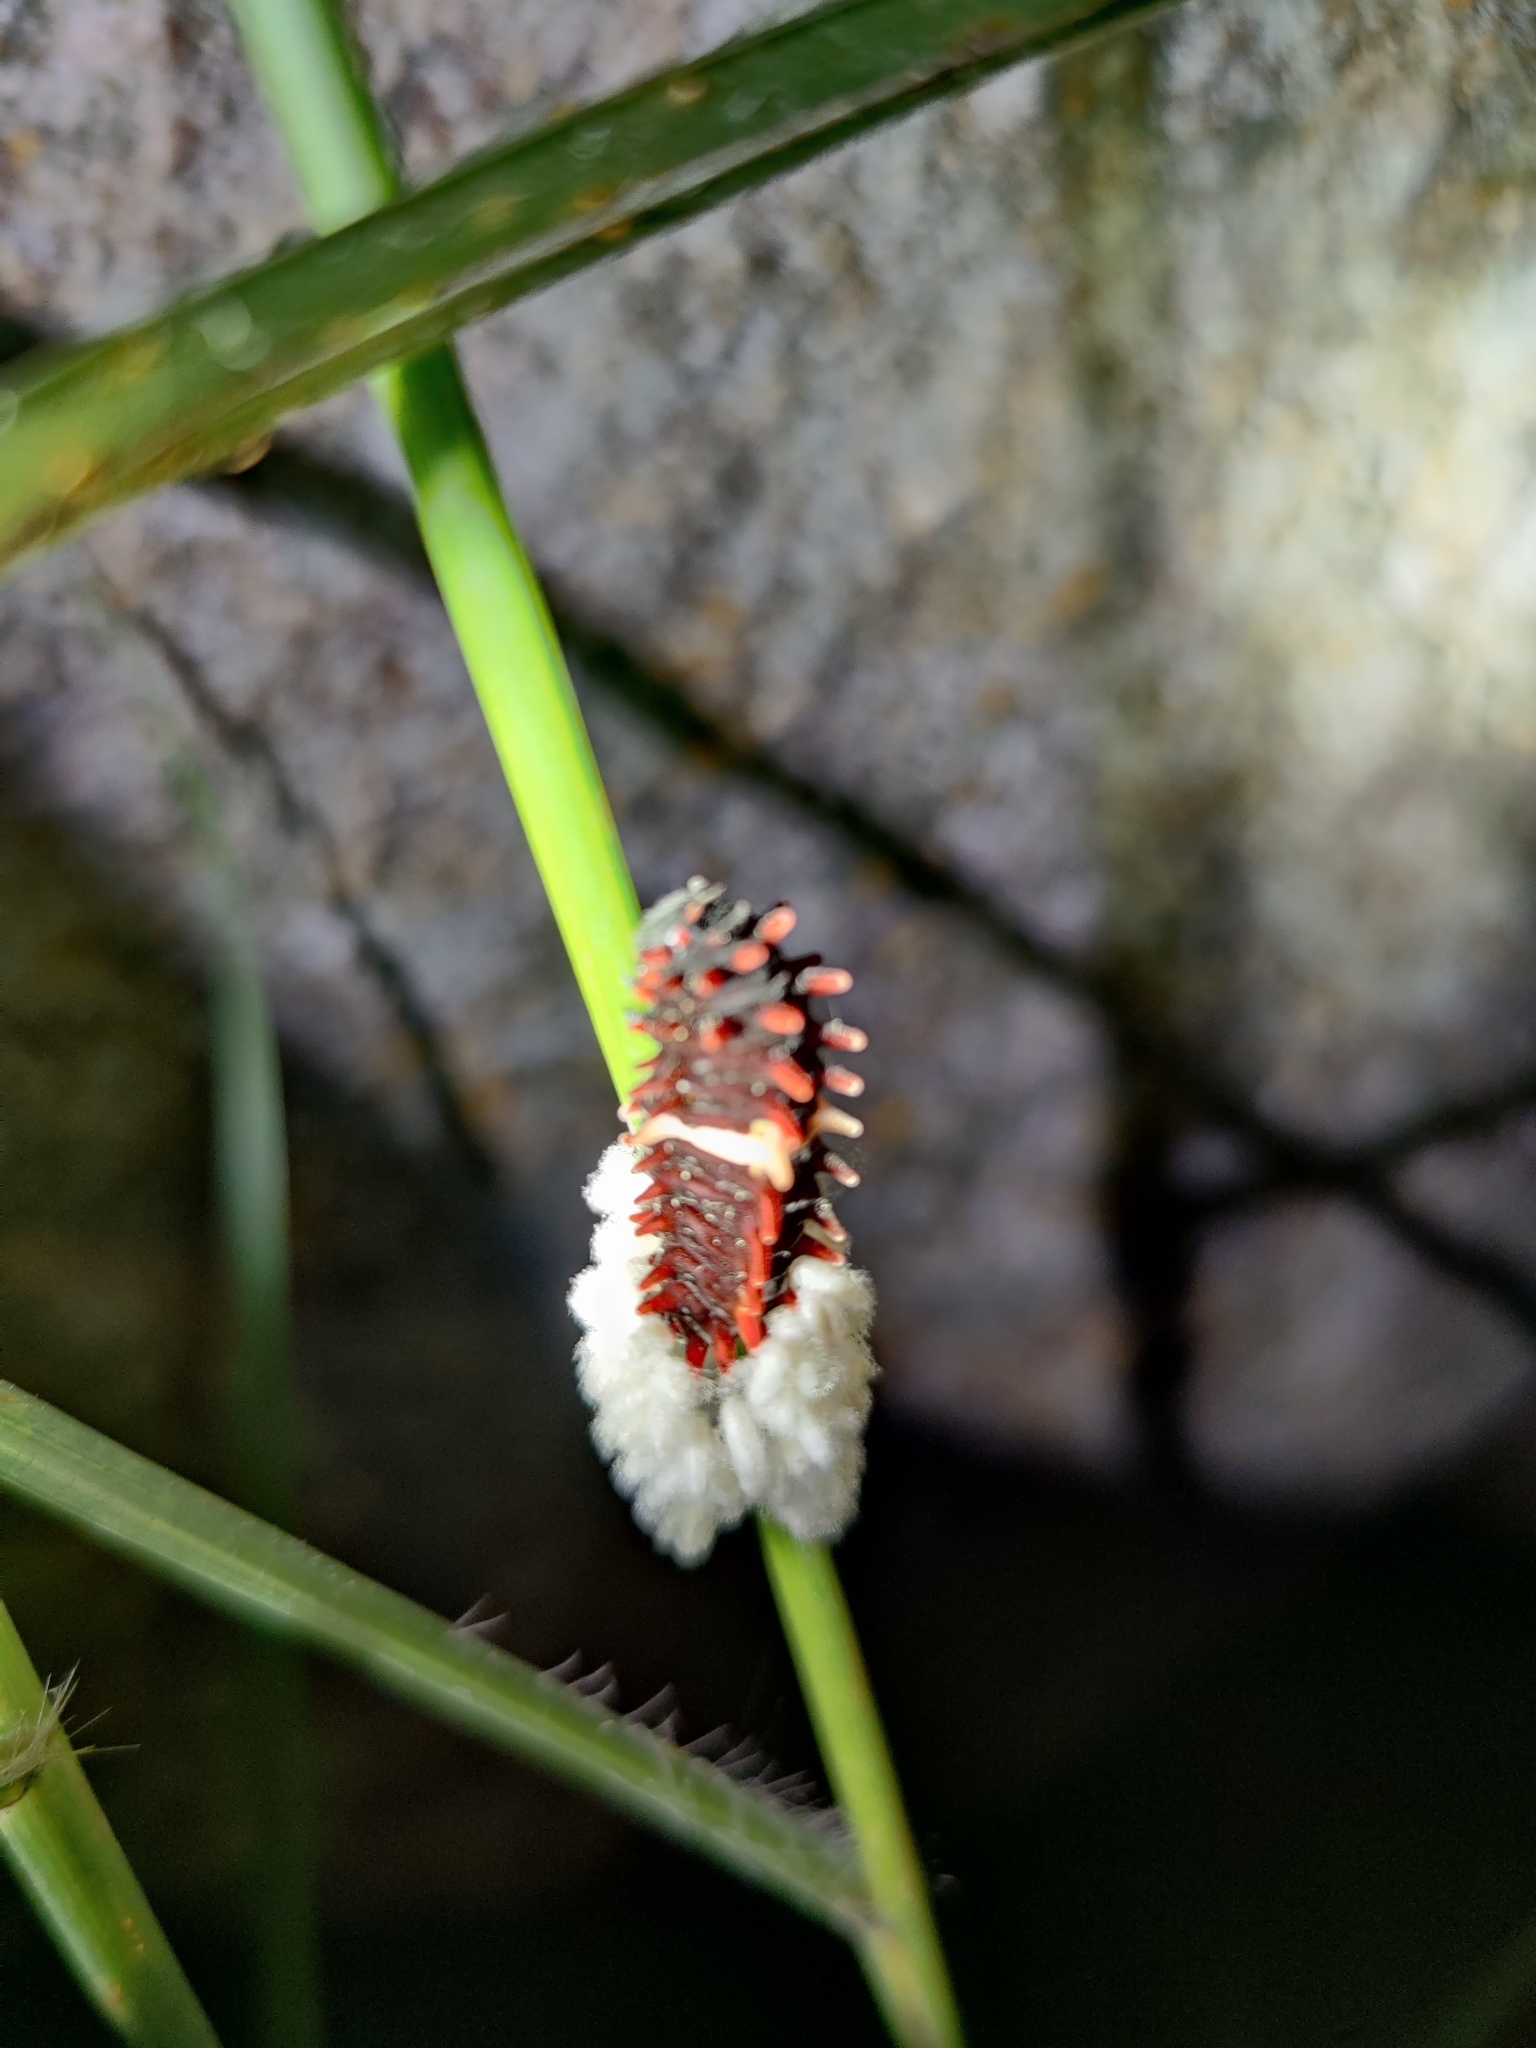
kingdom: Animalia
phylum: Arthropoda
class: Insecta
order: Lepidoptera
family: Papilionidae
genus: Pachliopta
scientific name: Pachliopta aristolochiae
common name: Common rose
